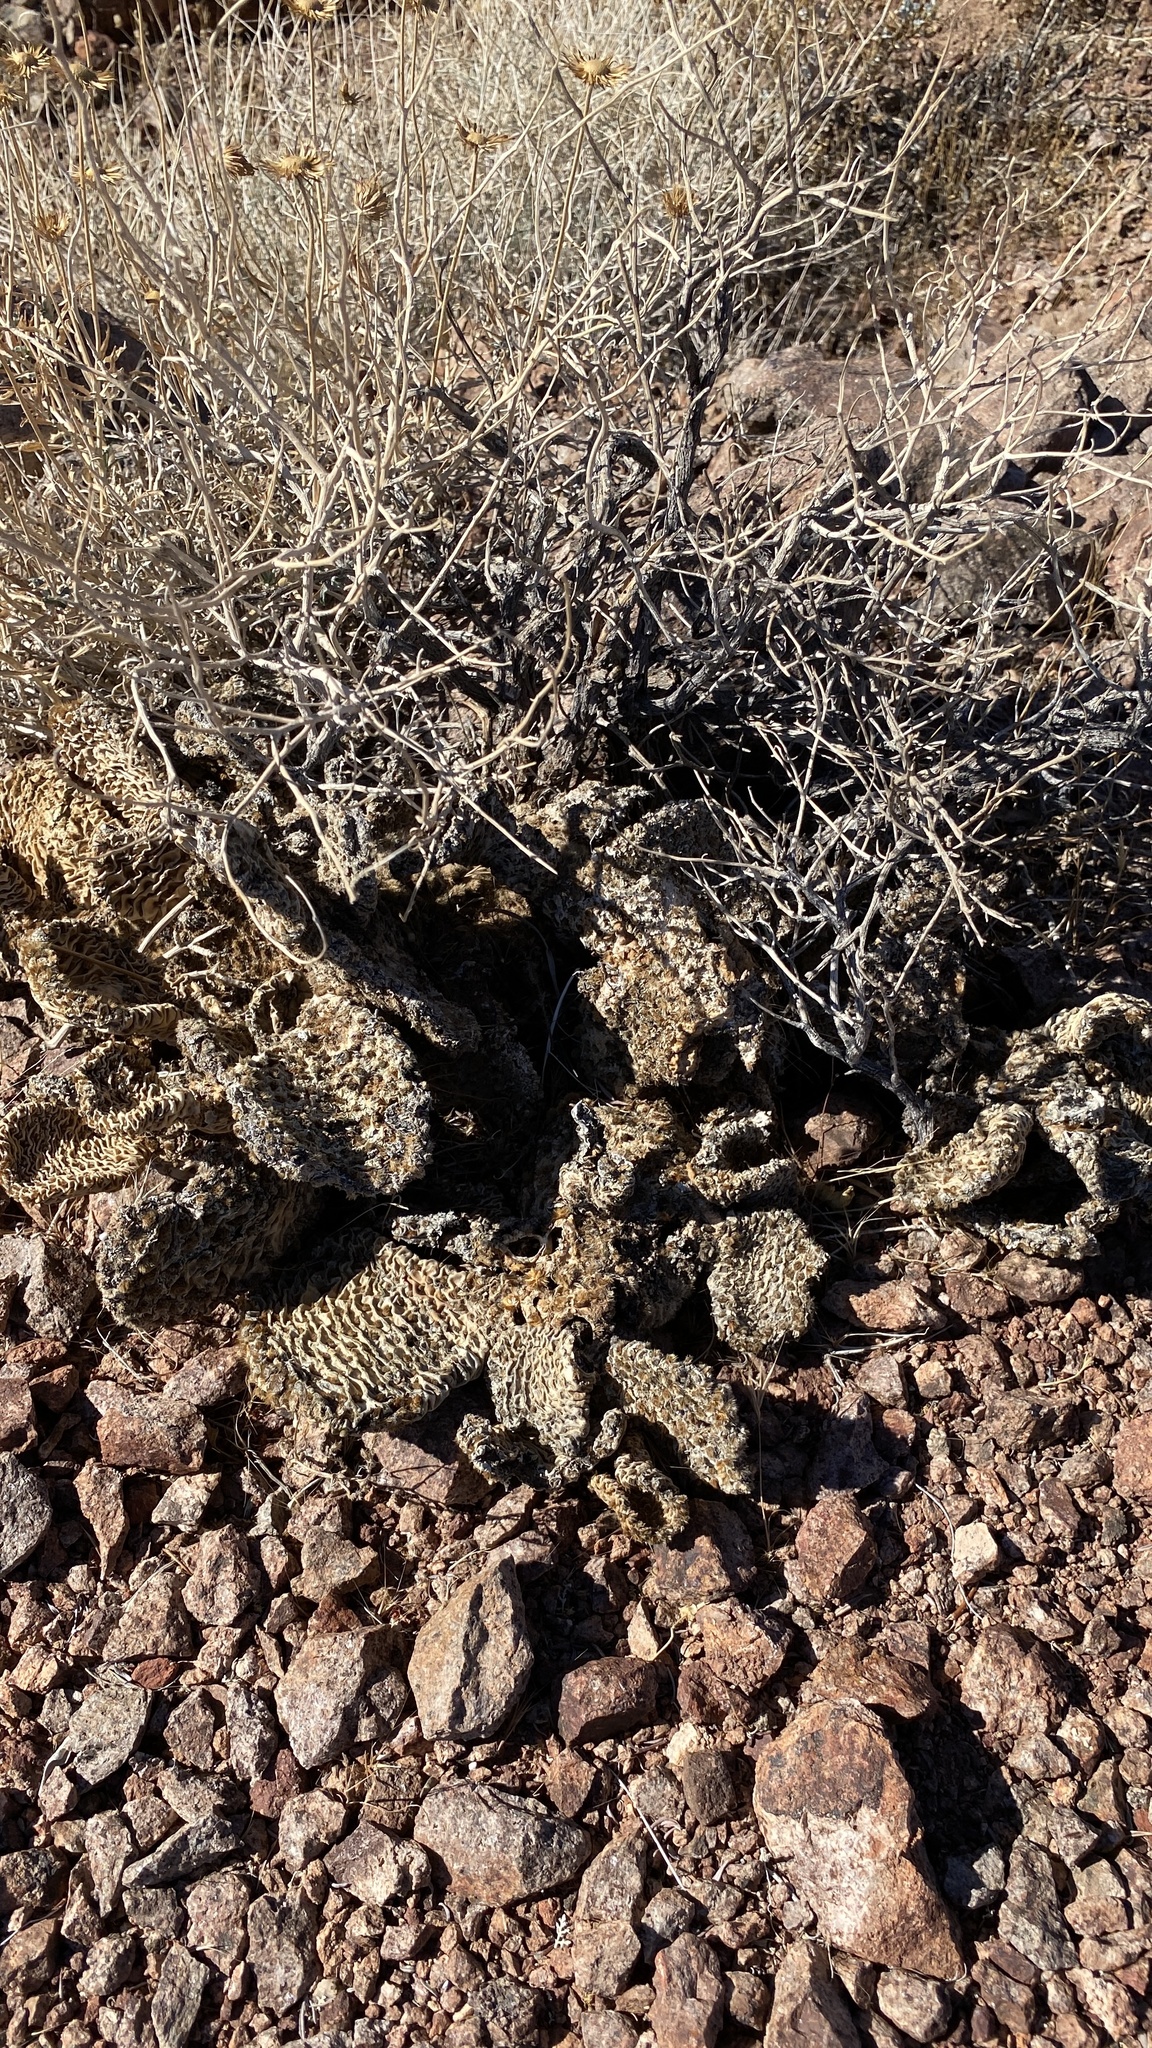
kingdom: Plantae
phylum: Tracheophyta
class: Magnoliopsida
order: Caryophyllales
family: Cactaceae
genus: Opuntia
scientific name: Opuntia basilaris
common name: Beavertail prickly-pear
